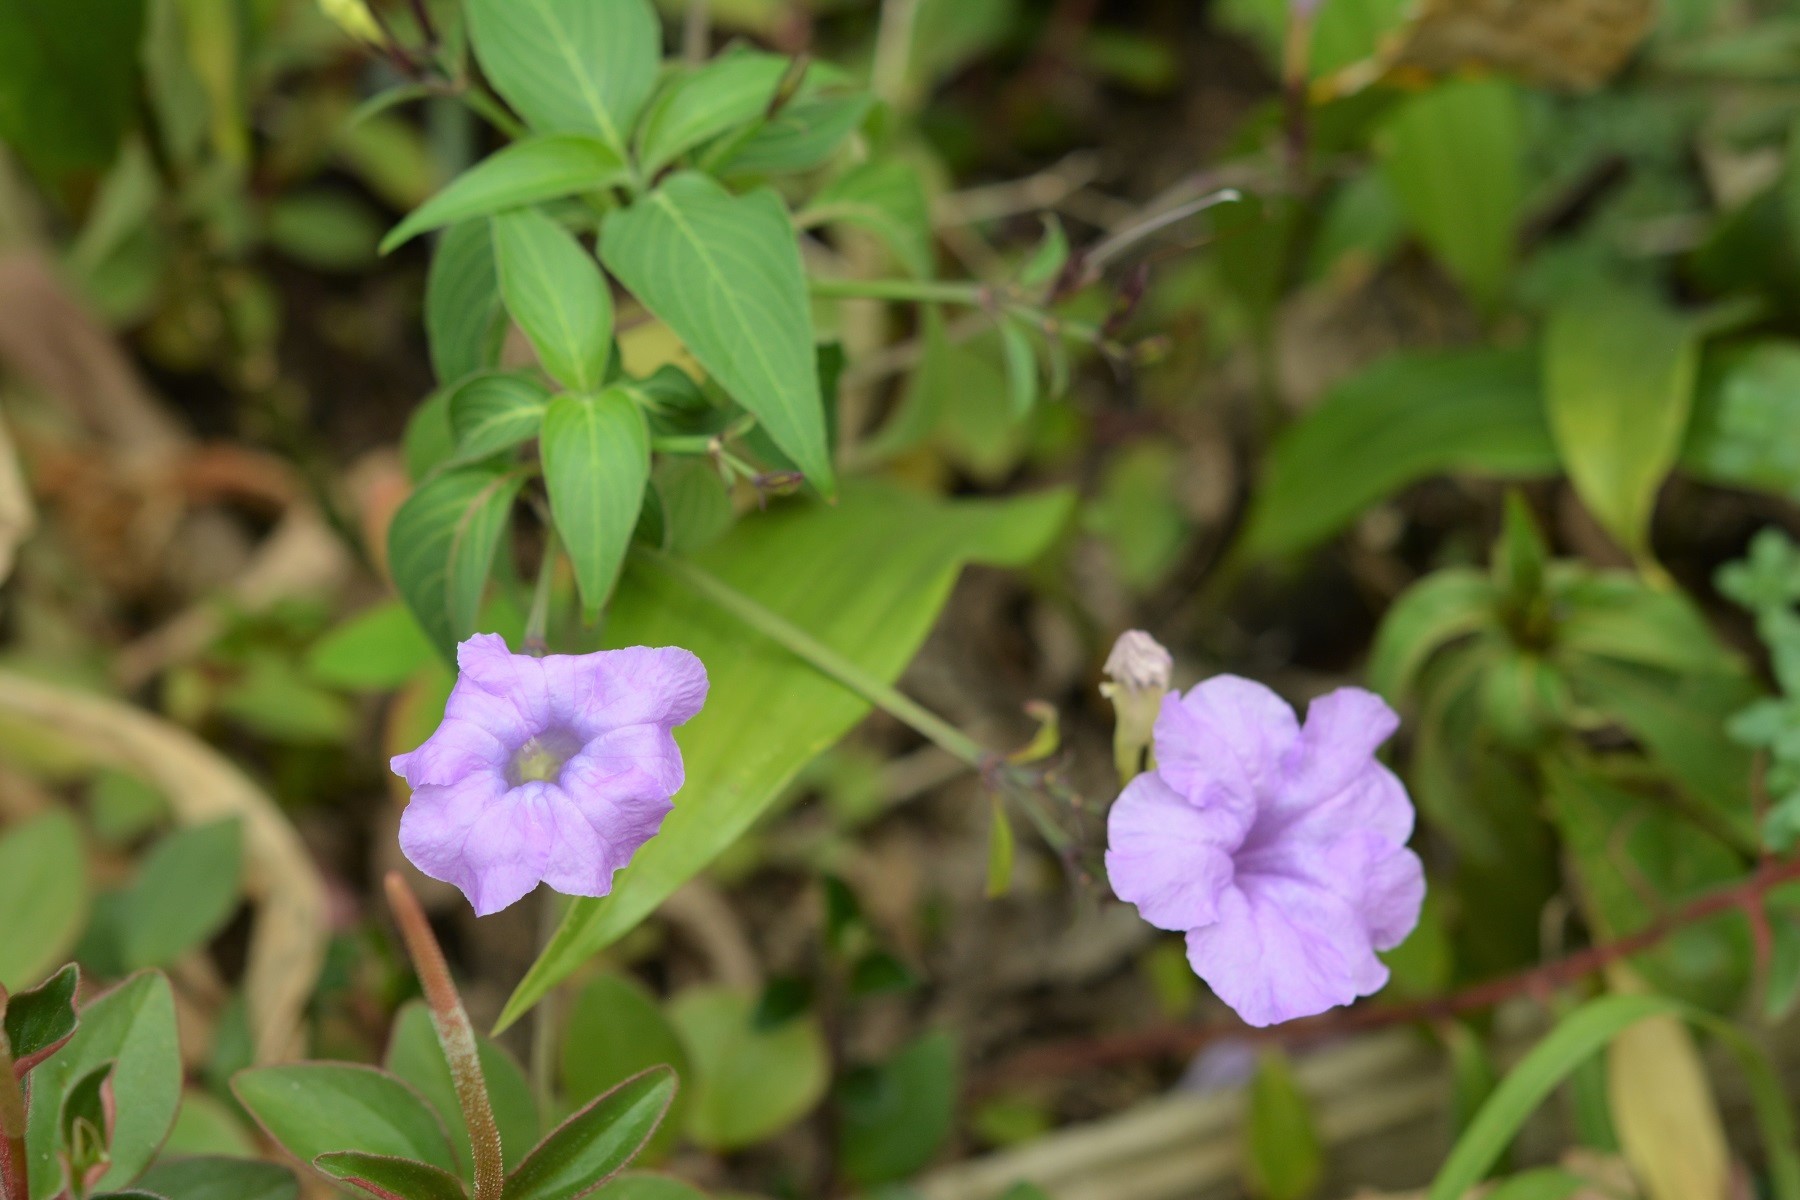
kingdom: Plantae
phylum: Tracheophyta
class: Magnoliopsida
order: Lamiales
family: Acanthaceae
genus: Ruellia
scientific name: Ruellia breedlovei
